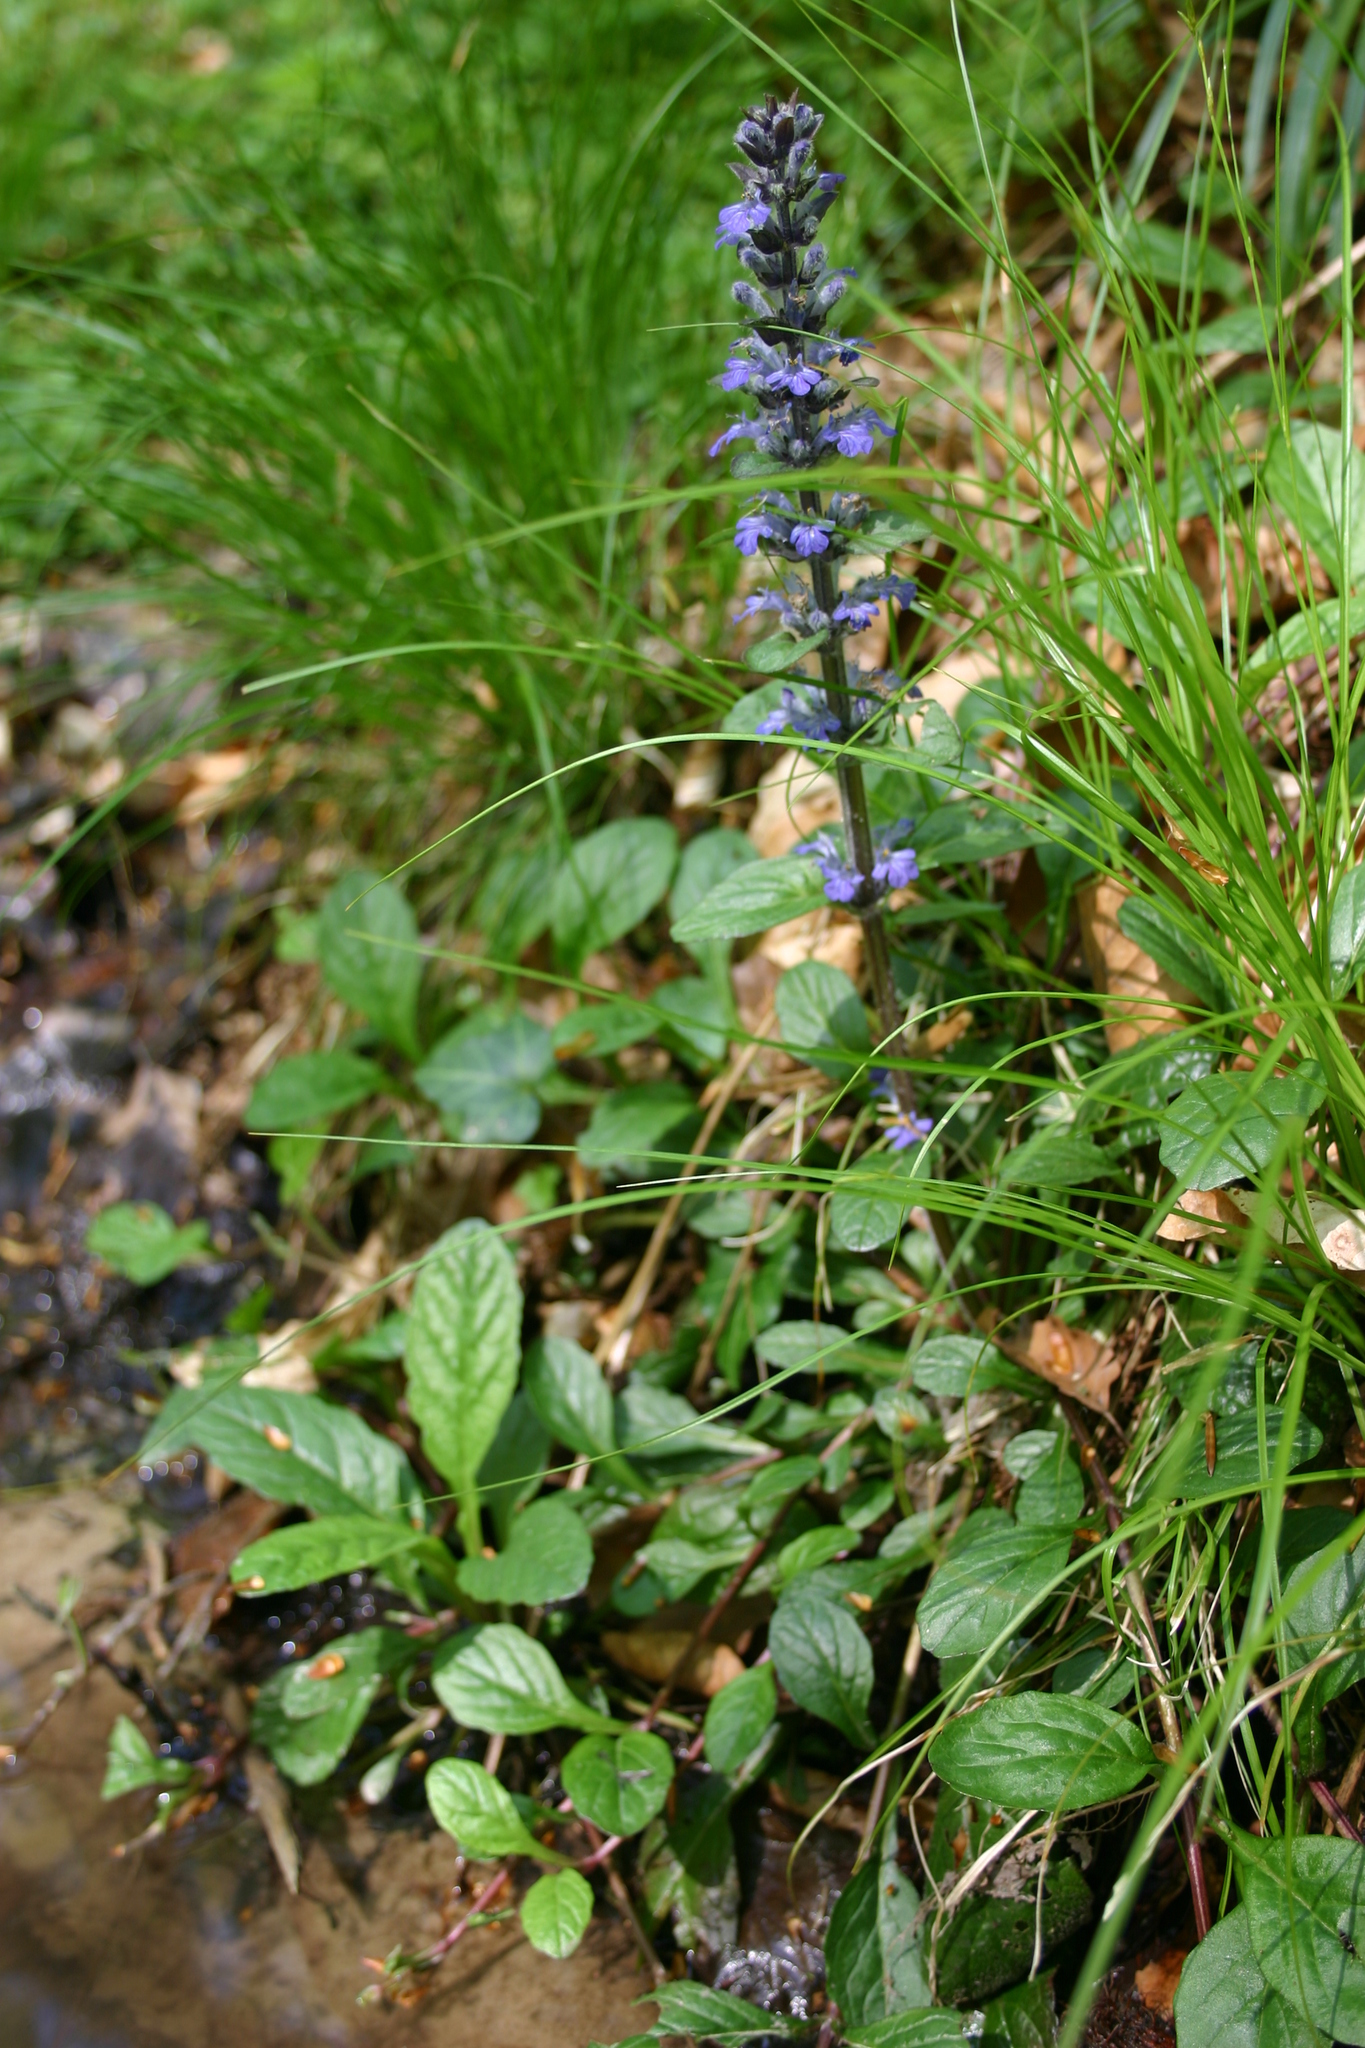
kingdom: Plantae
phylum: Tracheophyta
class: Magnoliopsida
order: Lamiales
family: Lamiaceae
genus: Ajuga
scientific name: Ajuga reptans
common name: Bugle
